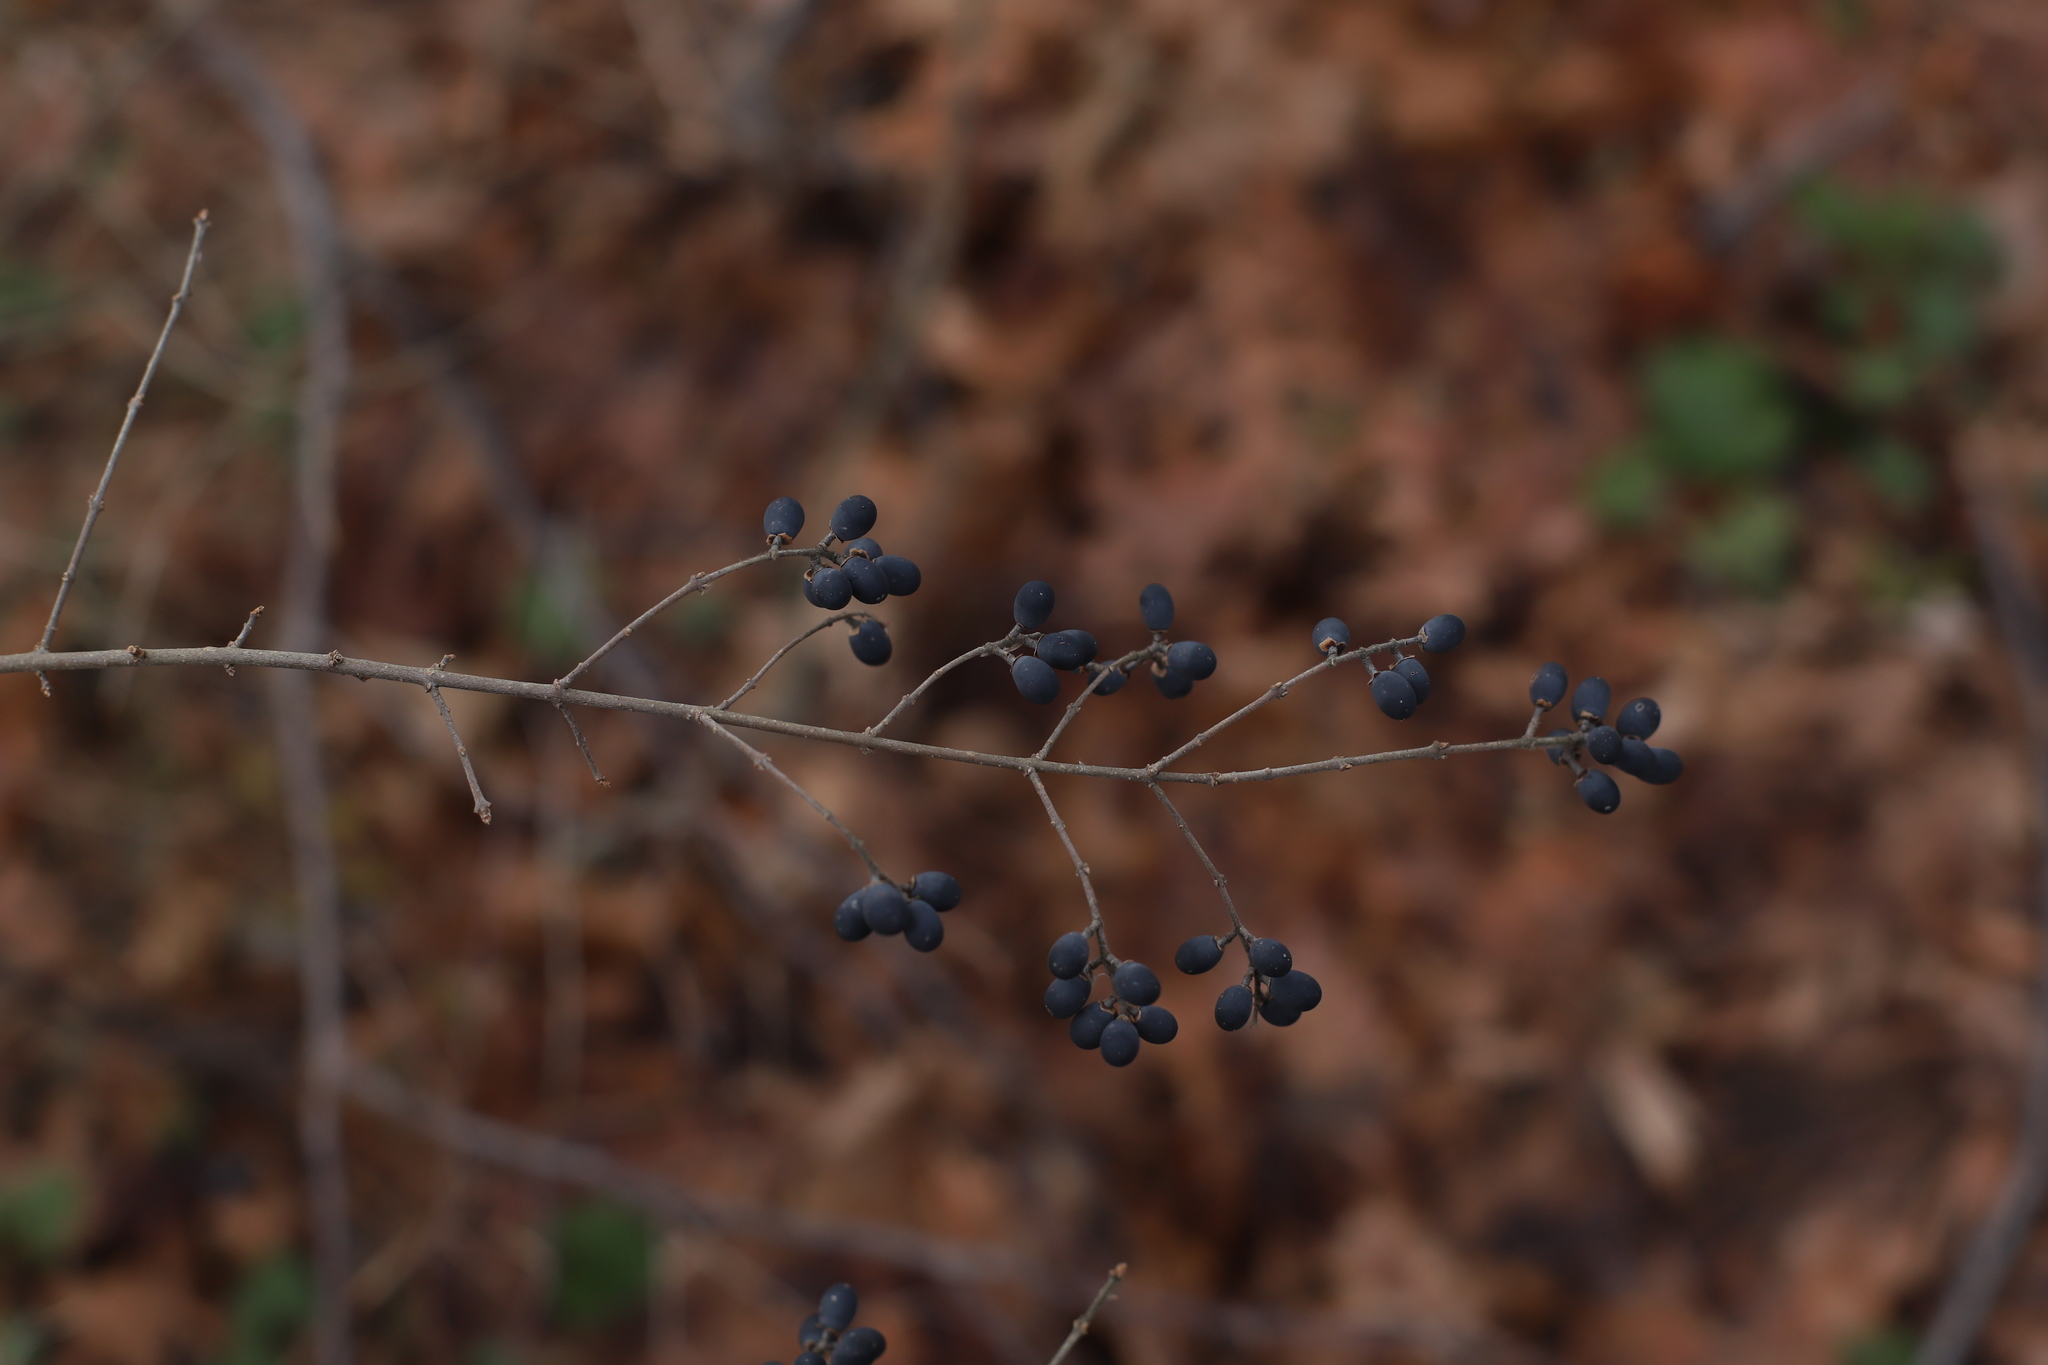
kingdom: Plantae
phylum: Tracheophyta
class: Magnoliopsida
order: Lamiales
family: Oleaceae
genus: Ligustrum
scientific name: Ligustrum obtusifolium
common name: Border privet
